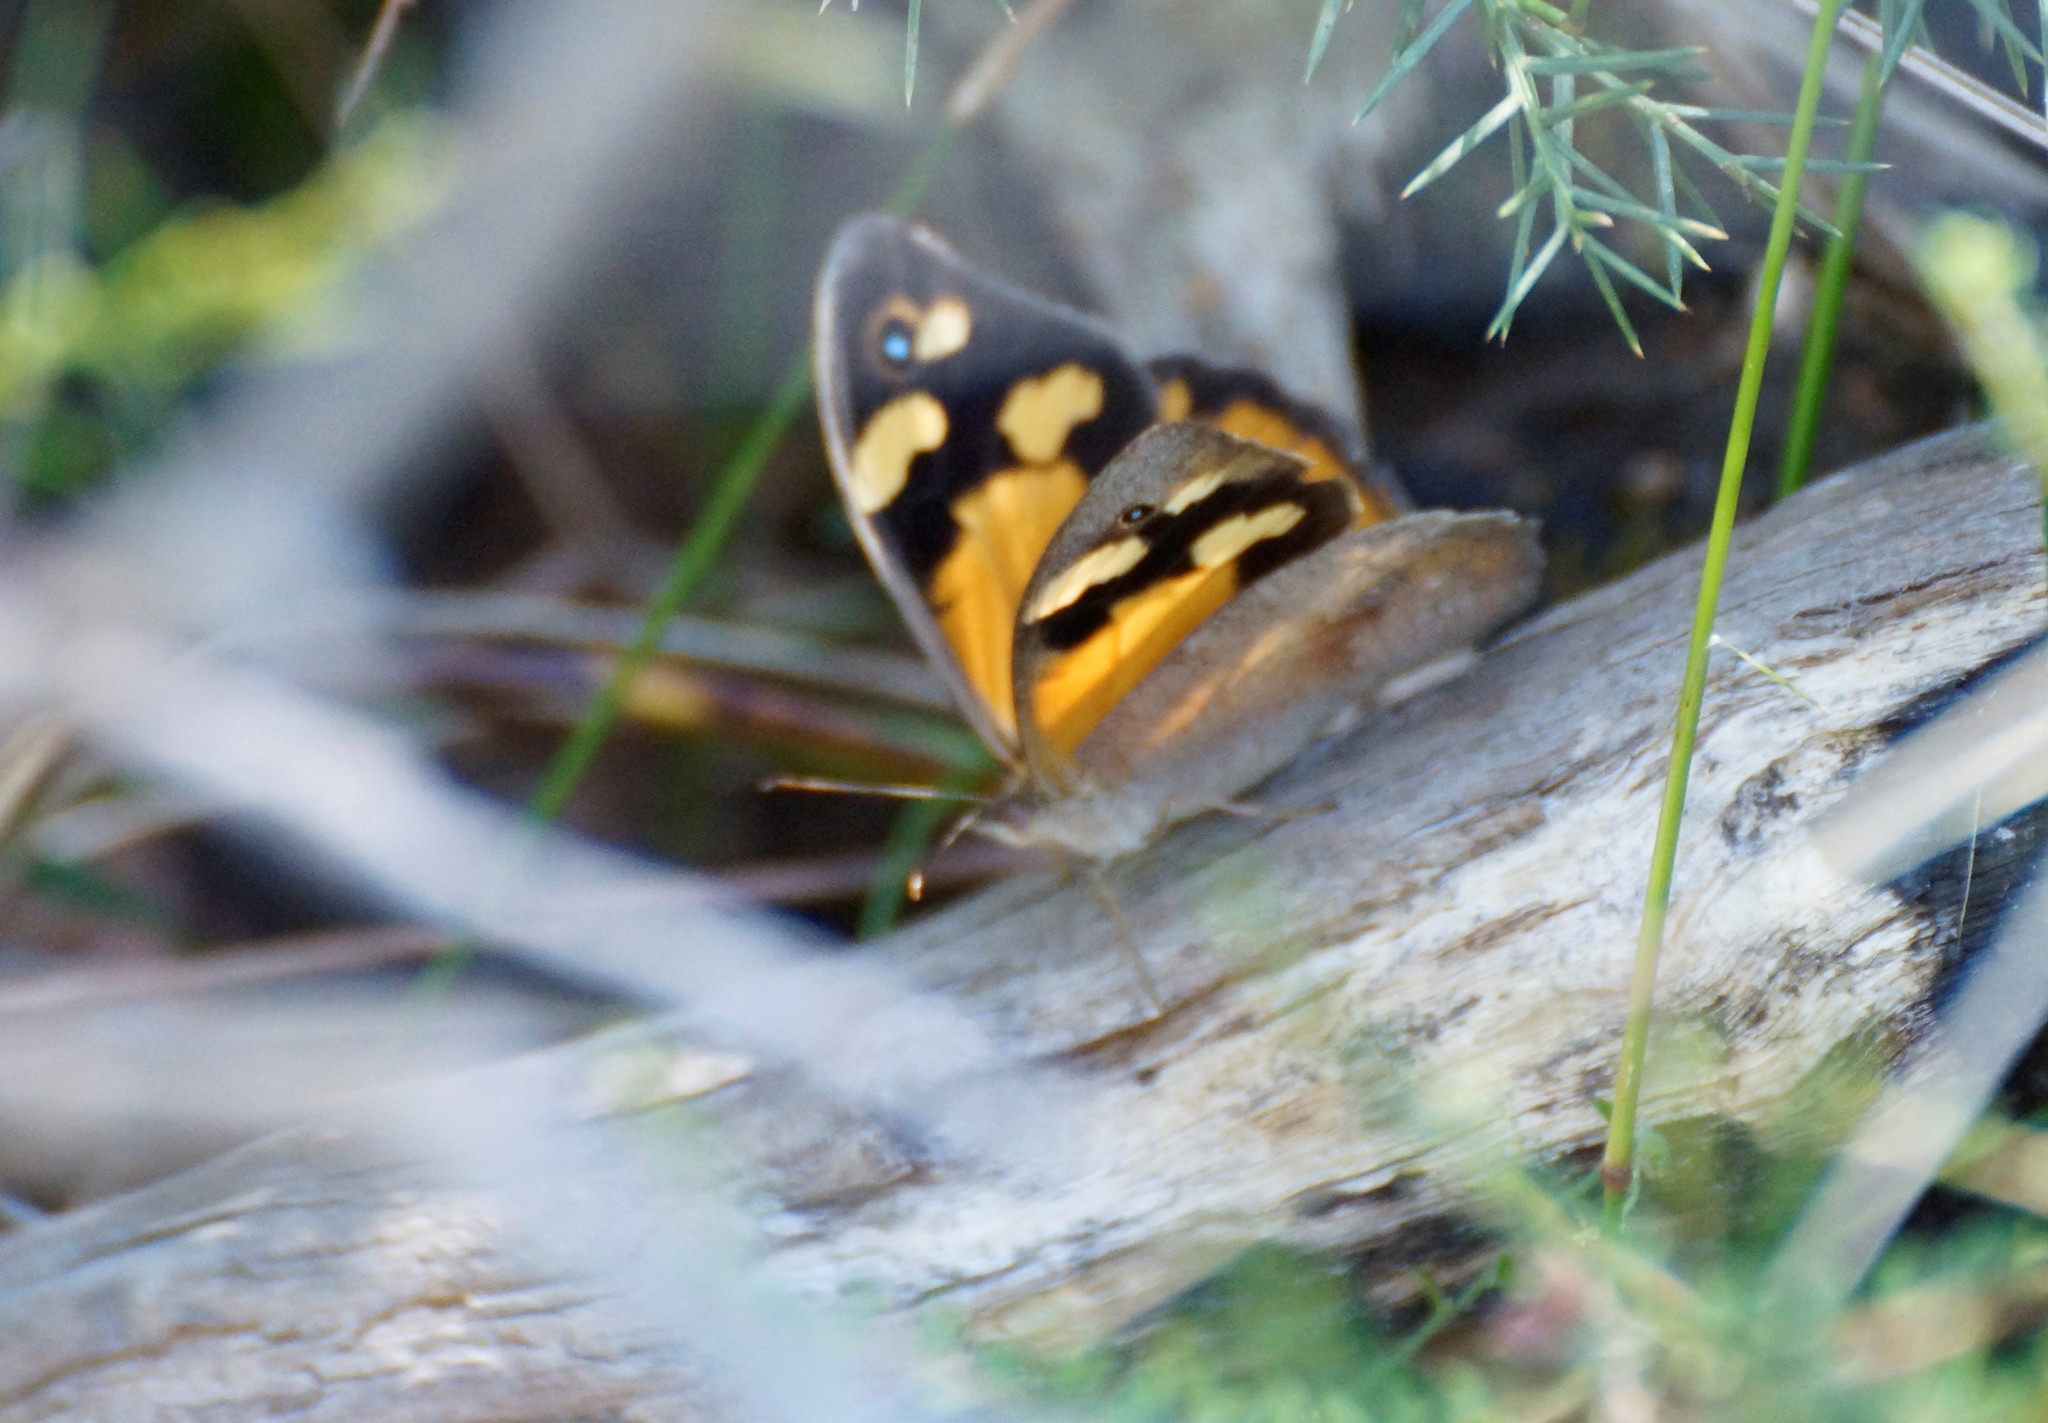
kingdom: Animalia
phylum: Arthropoda
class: Insecta
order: Lepidoptera
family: Nymphalidae
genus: Heteronympha
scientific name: Heteronympha merope
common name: Common brown
